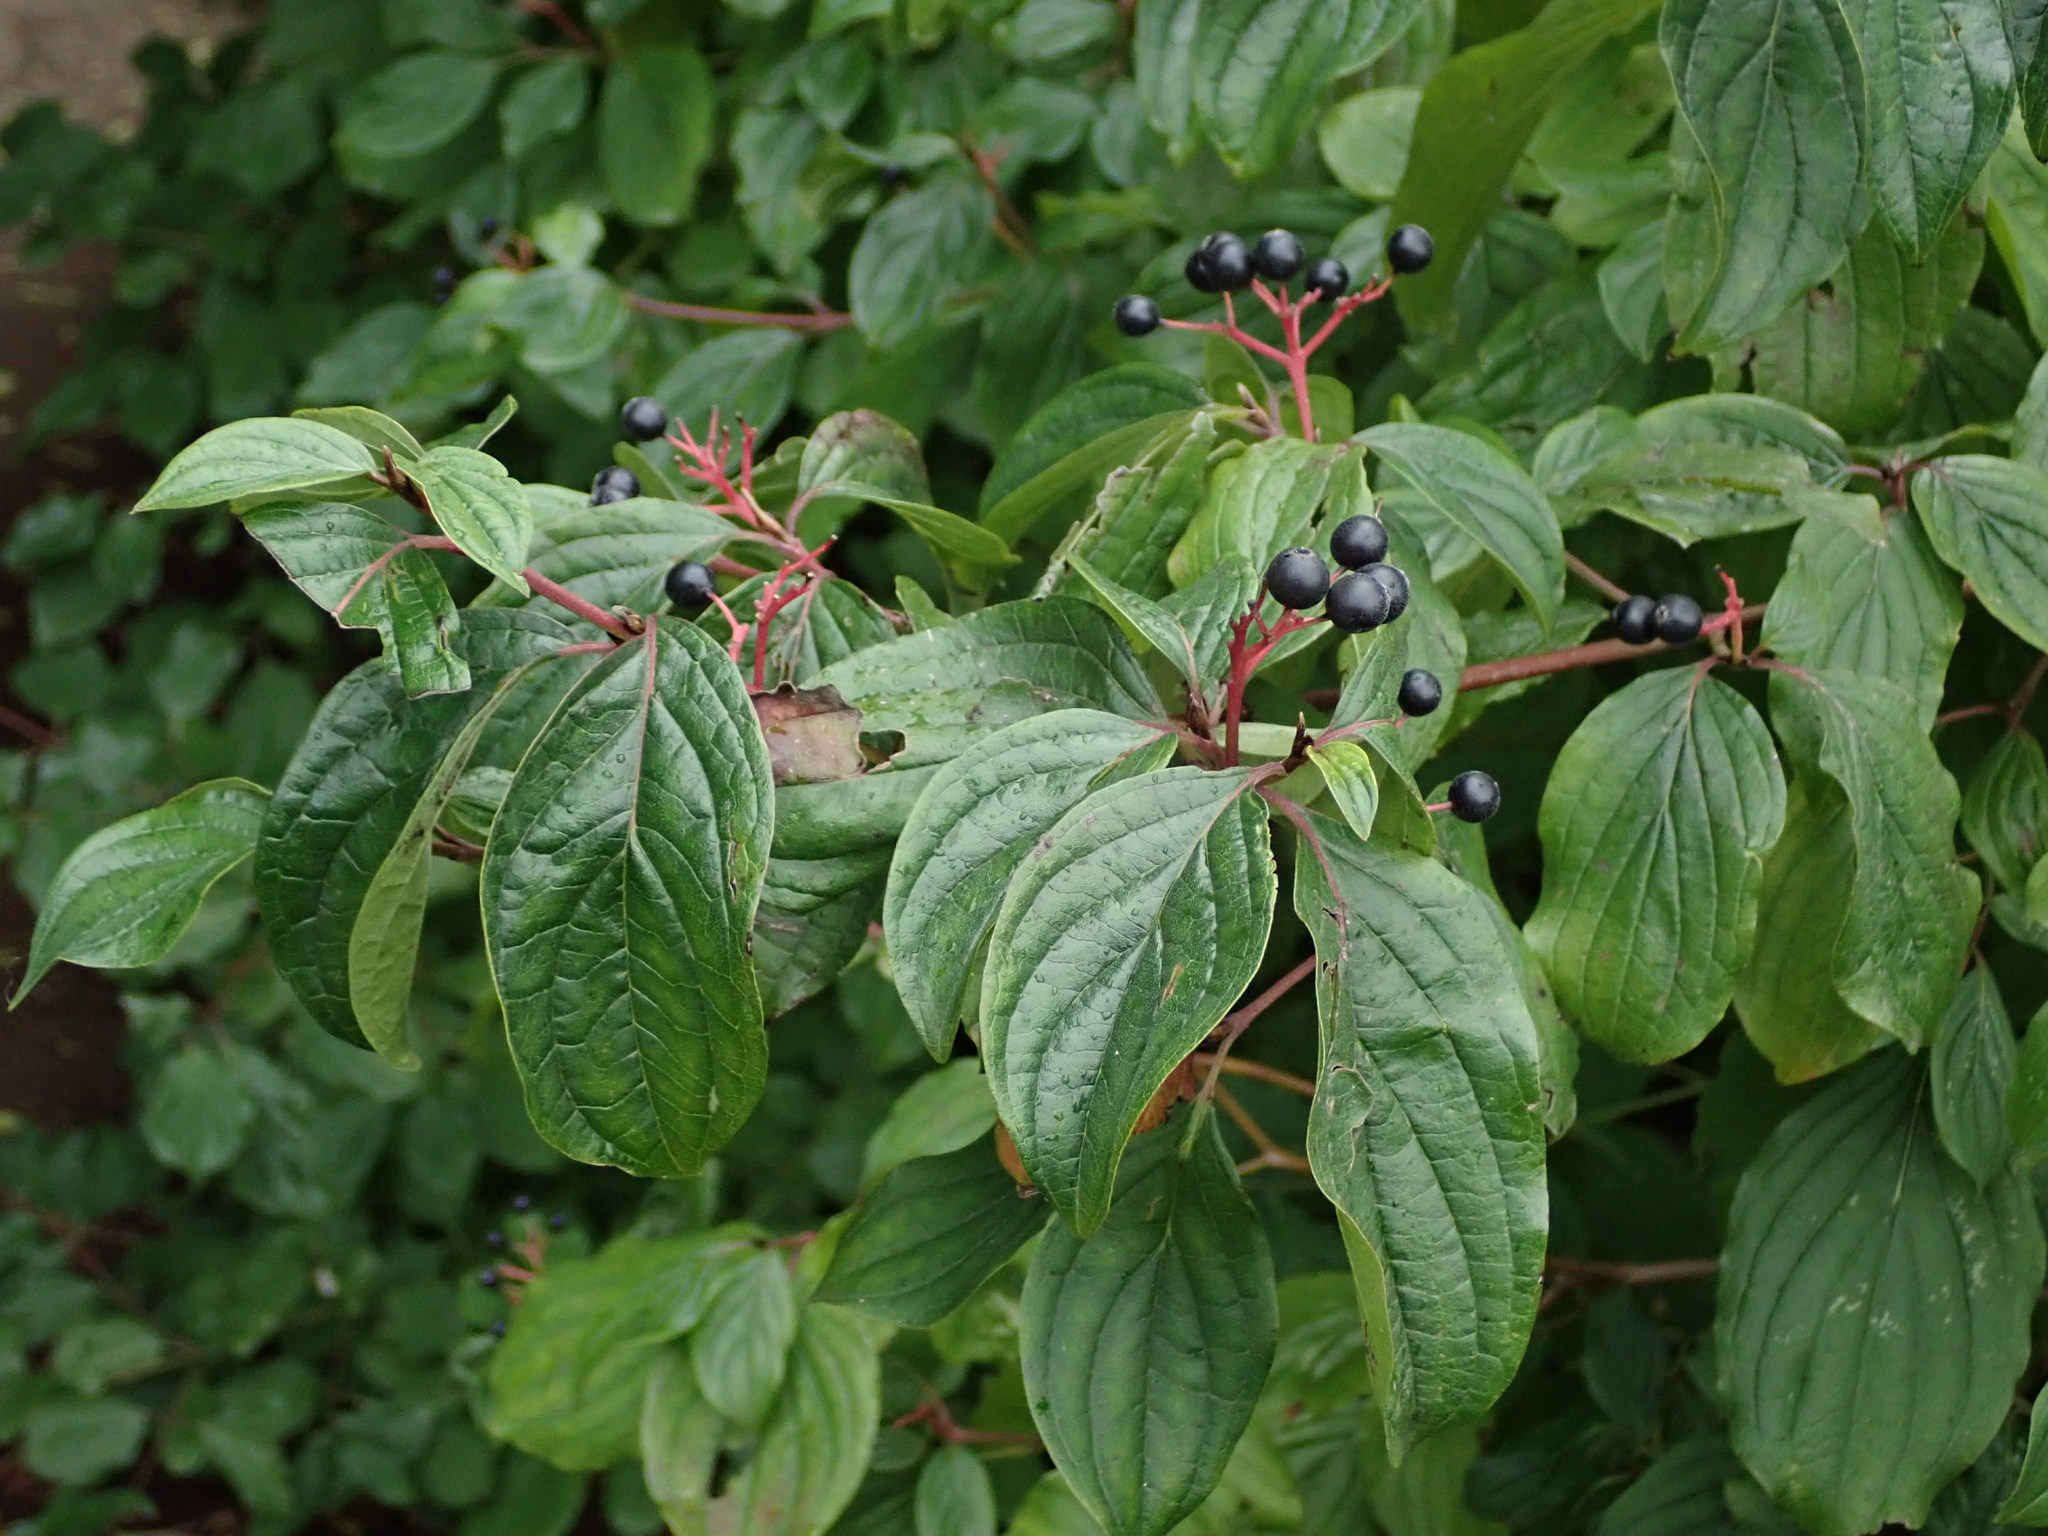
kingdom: Plantae
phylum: Tracheophyta
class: Magnoliopsida
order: Cornales
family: Cornaceae
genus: Cornus
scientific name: Cornus sanguinea
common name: Dogwood
